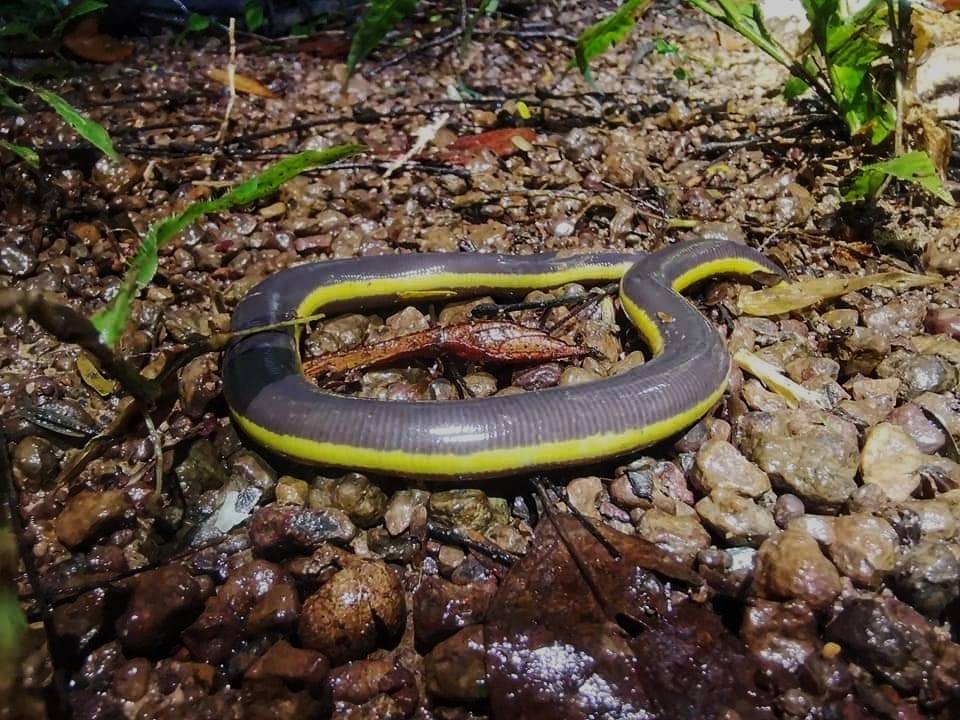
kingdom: Animalia
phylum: Chordata
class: Amphibia
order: Gymnophiona
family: Ichthyophiidae
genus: Ichthyophis
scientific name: Ichthyophis nguyenorum
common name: Nguyen's caecilia
